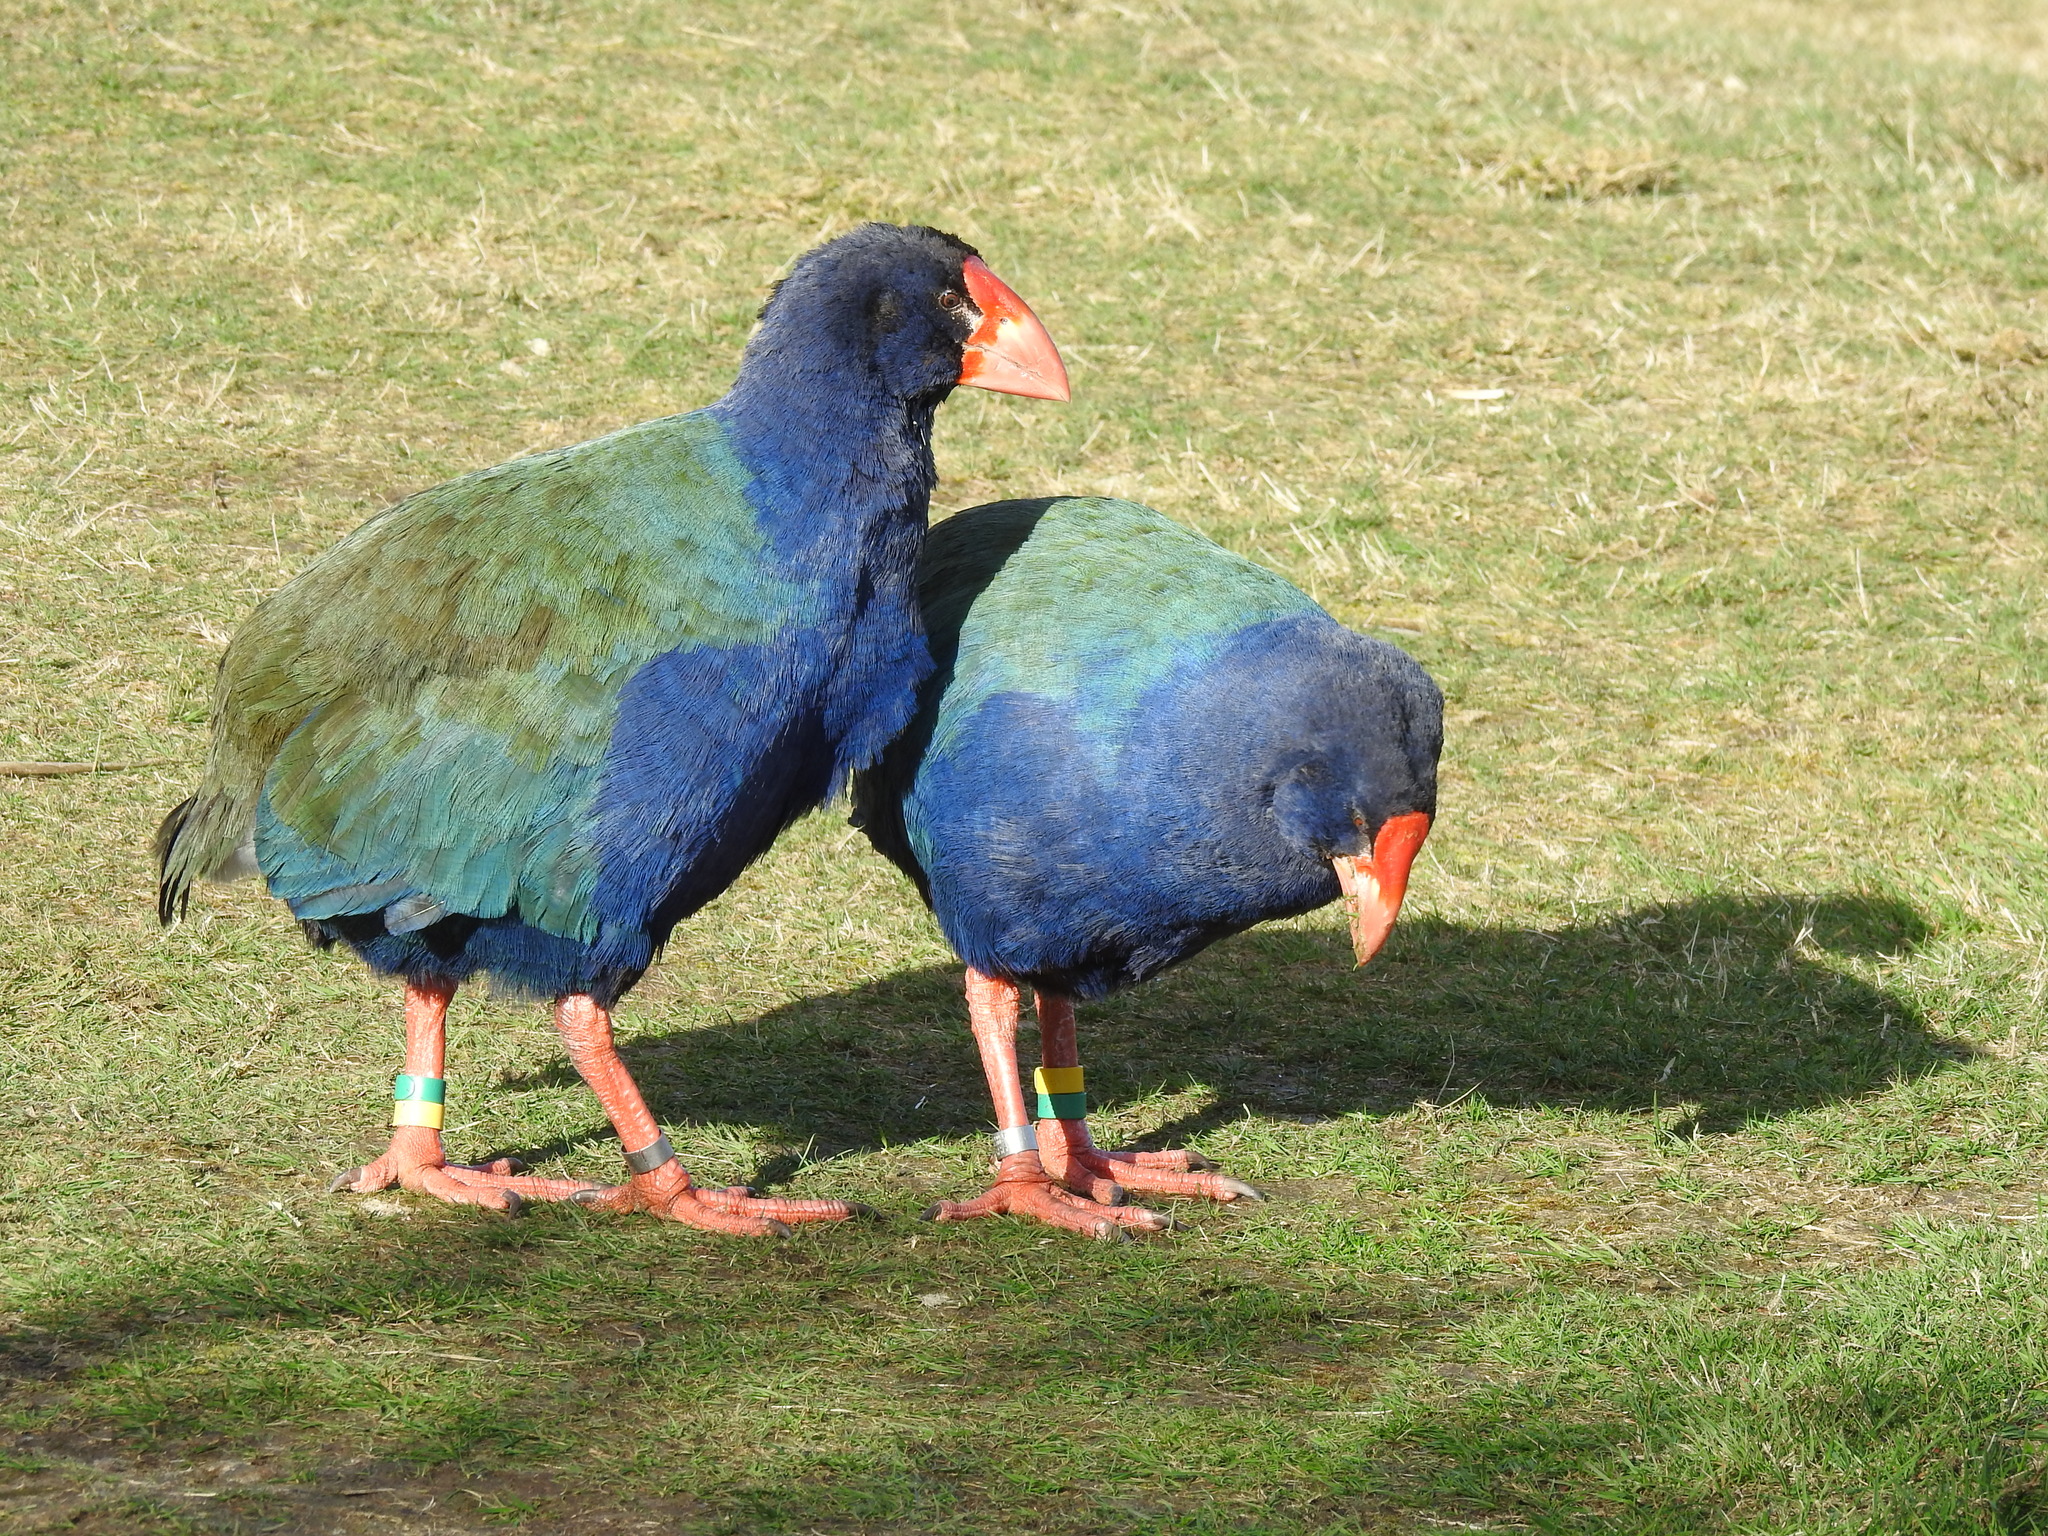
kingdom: Animalia
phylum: Chordata
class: Aves
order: Gruiformes
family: Rallidae
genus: Porphyrio
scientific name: Porphyrio hochstetteri
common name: South island takahe
